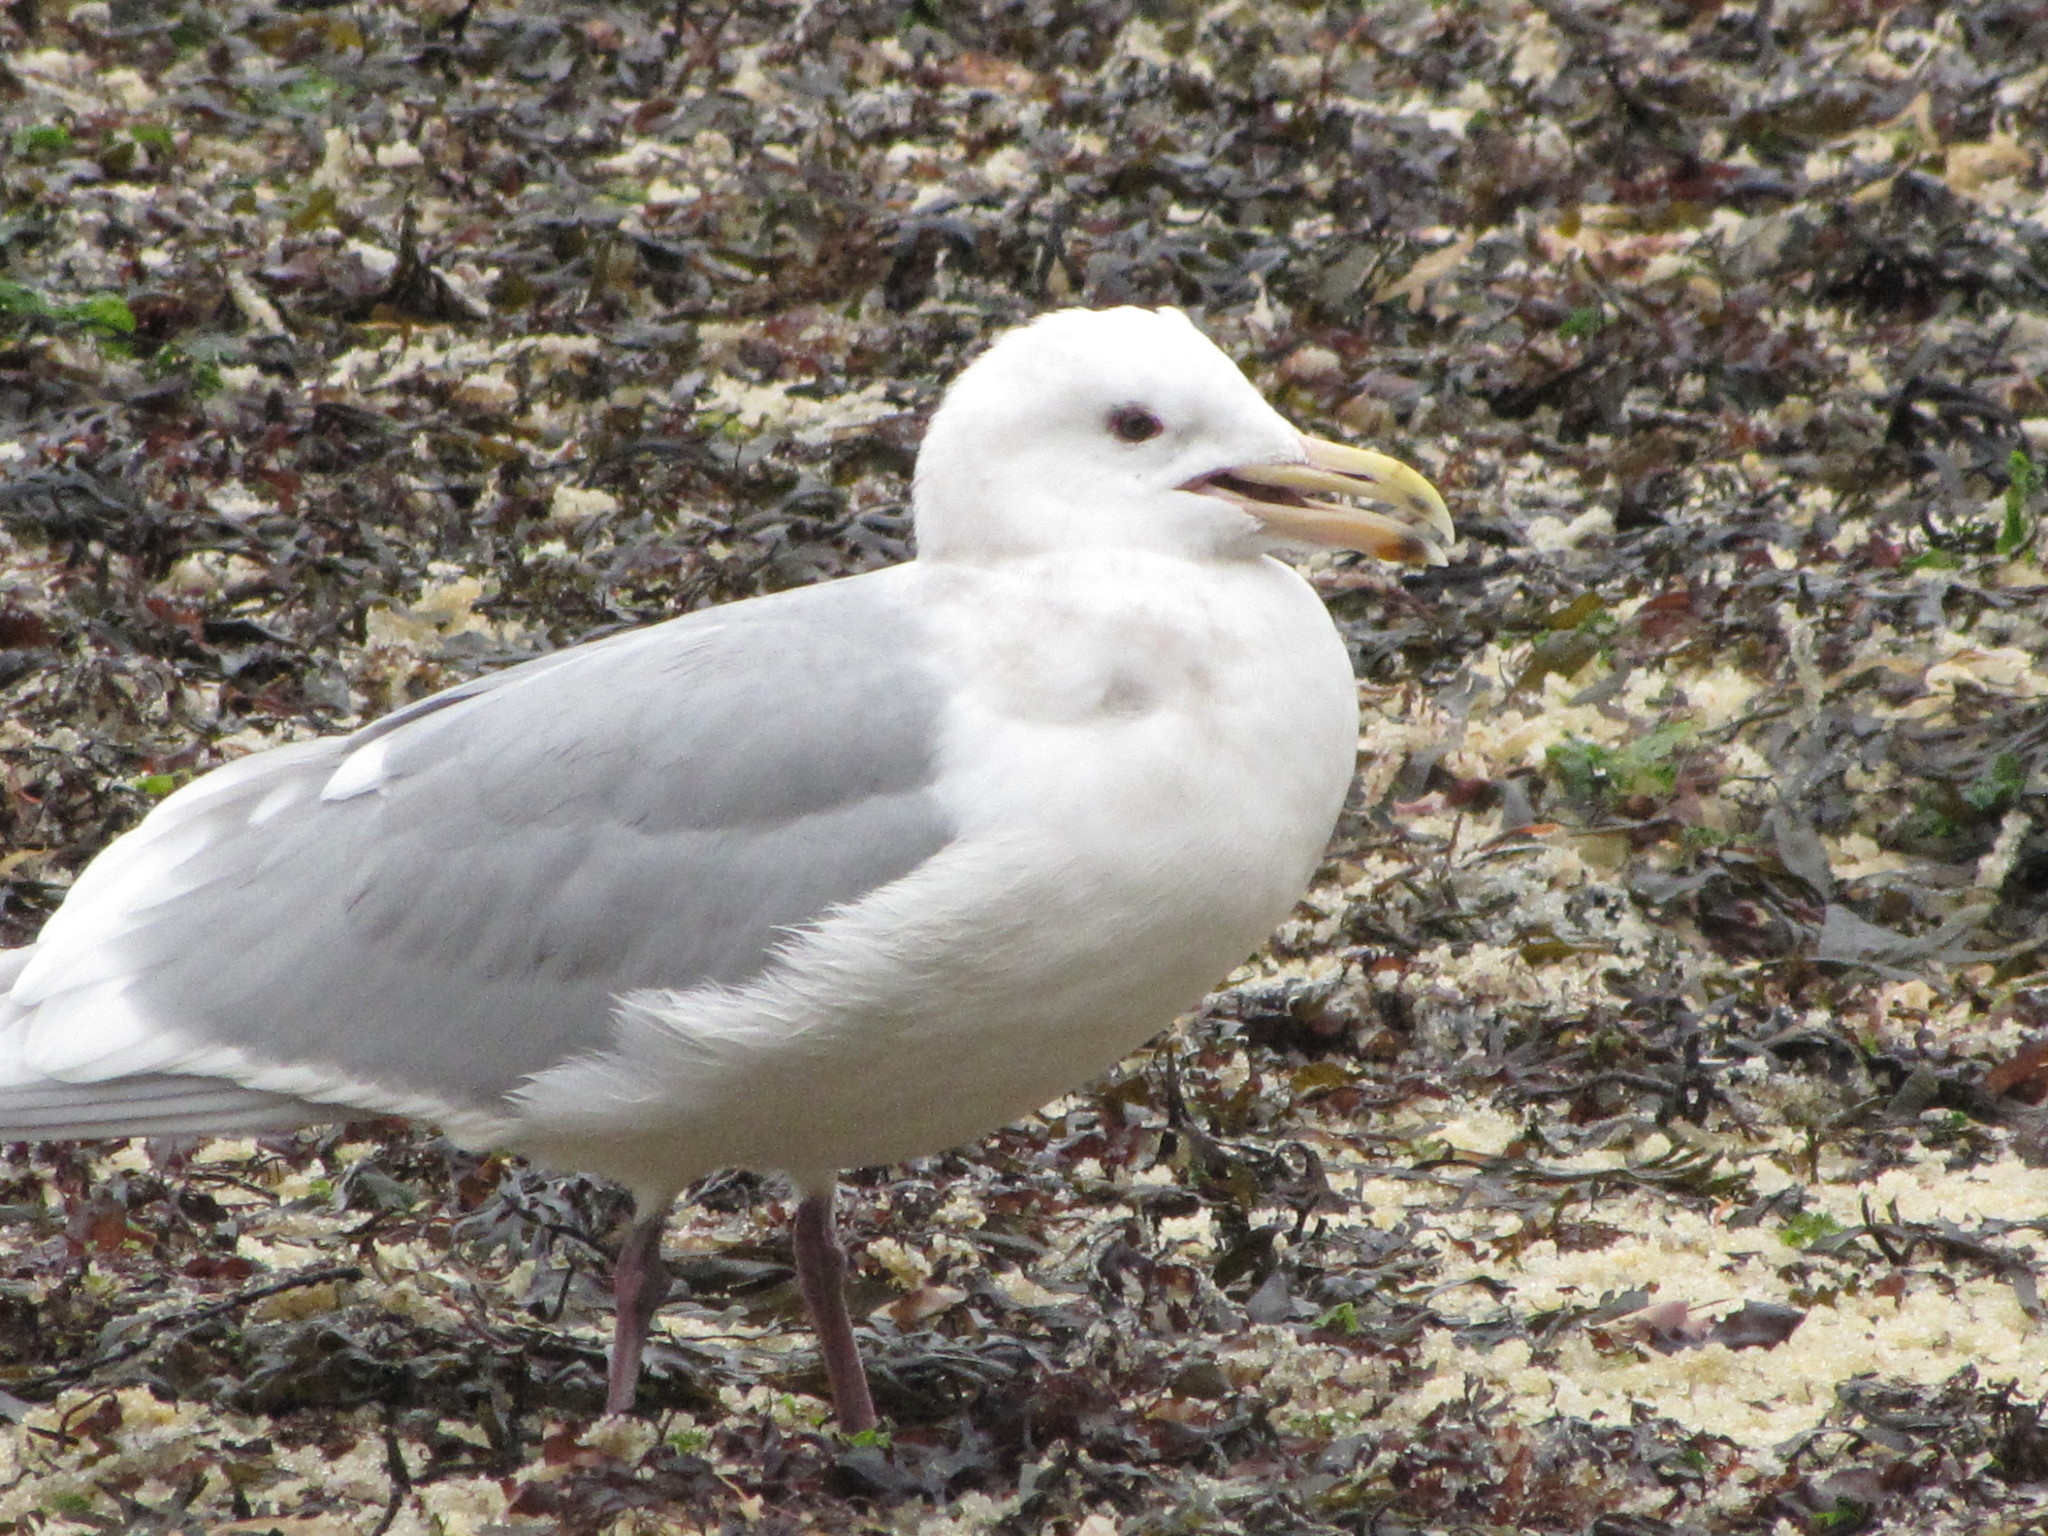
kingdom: Animalia
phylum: Chordata
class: Aves
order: Charadriiformes
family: Laridae
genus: Larus
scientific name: Larus glaucescens
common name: Glaucous-winged gull
